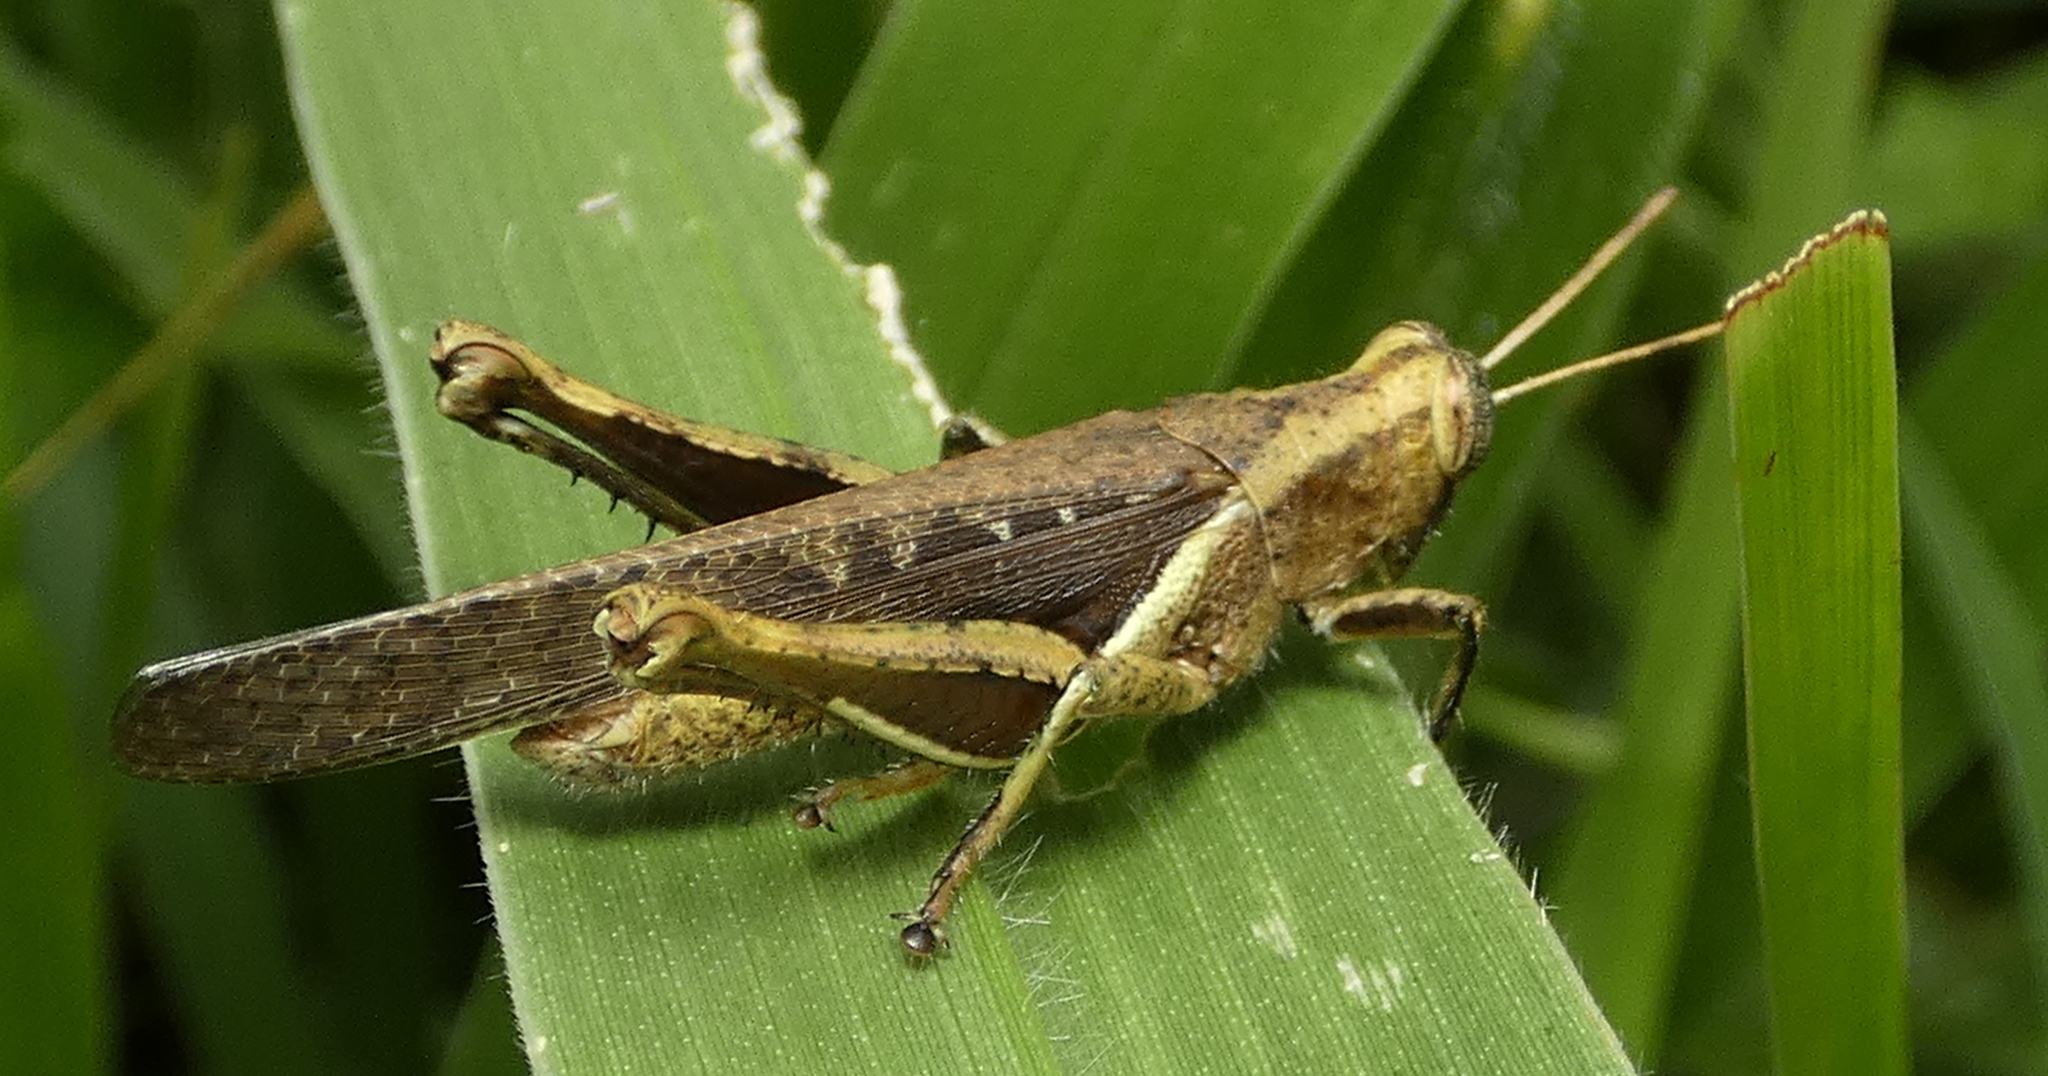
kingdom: Animalia
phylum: Arthropoda
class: Insecta
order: Orthoptera
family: Acrididae
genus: Abracris
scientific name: Abracris flavolineata
